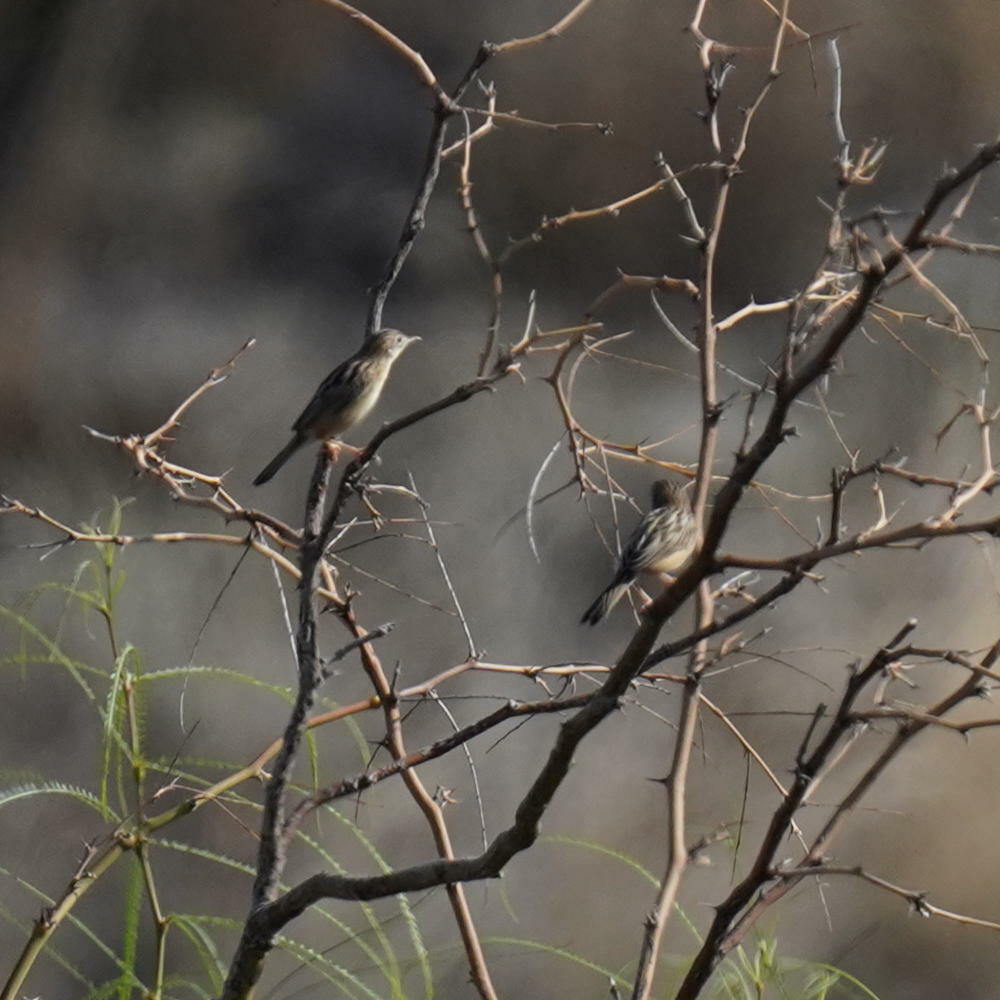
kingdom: Animalia
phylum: Chordata
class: Aves
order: Passeriformes
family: Cisticolidae
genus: Cisticola
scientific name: Cisticola juncidis
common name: Zitting cisticola
